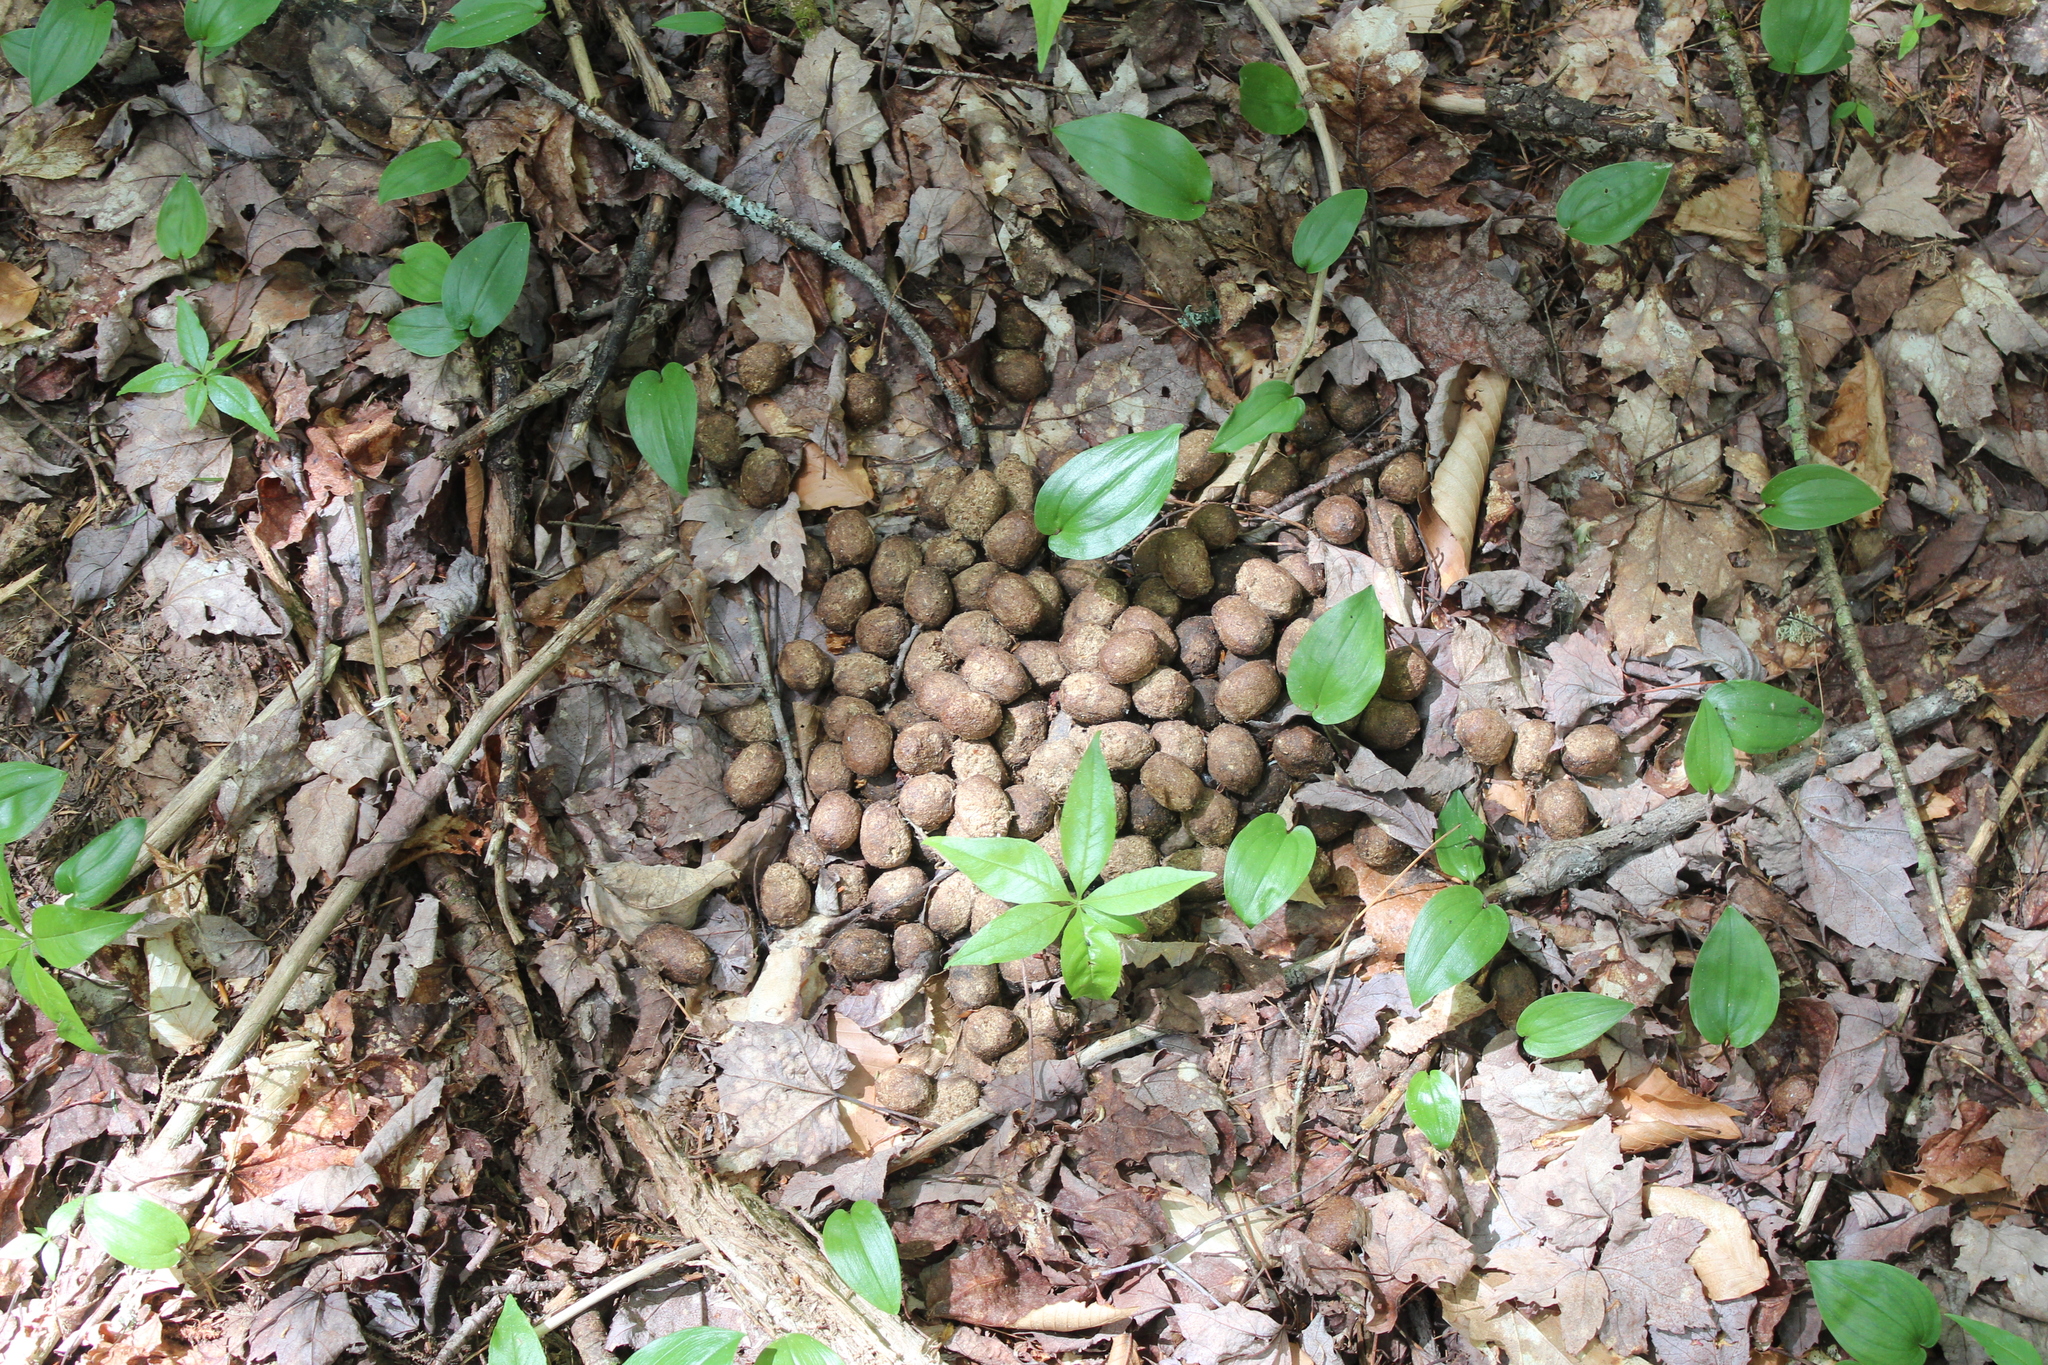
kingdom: Animalia
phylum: Chordata
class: Mammalia
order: Artiodactyla
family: Cervidae
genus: Alces
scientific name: Alces alces
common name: Moose
